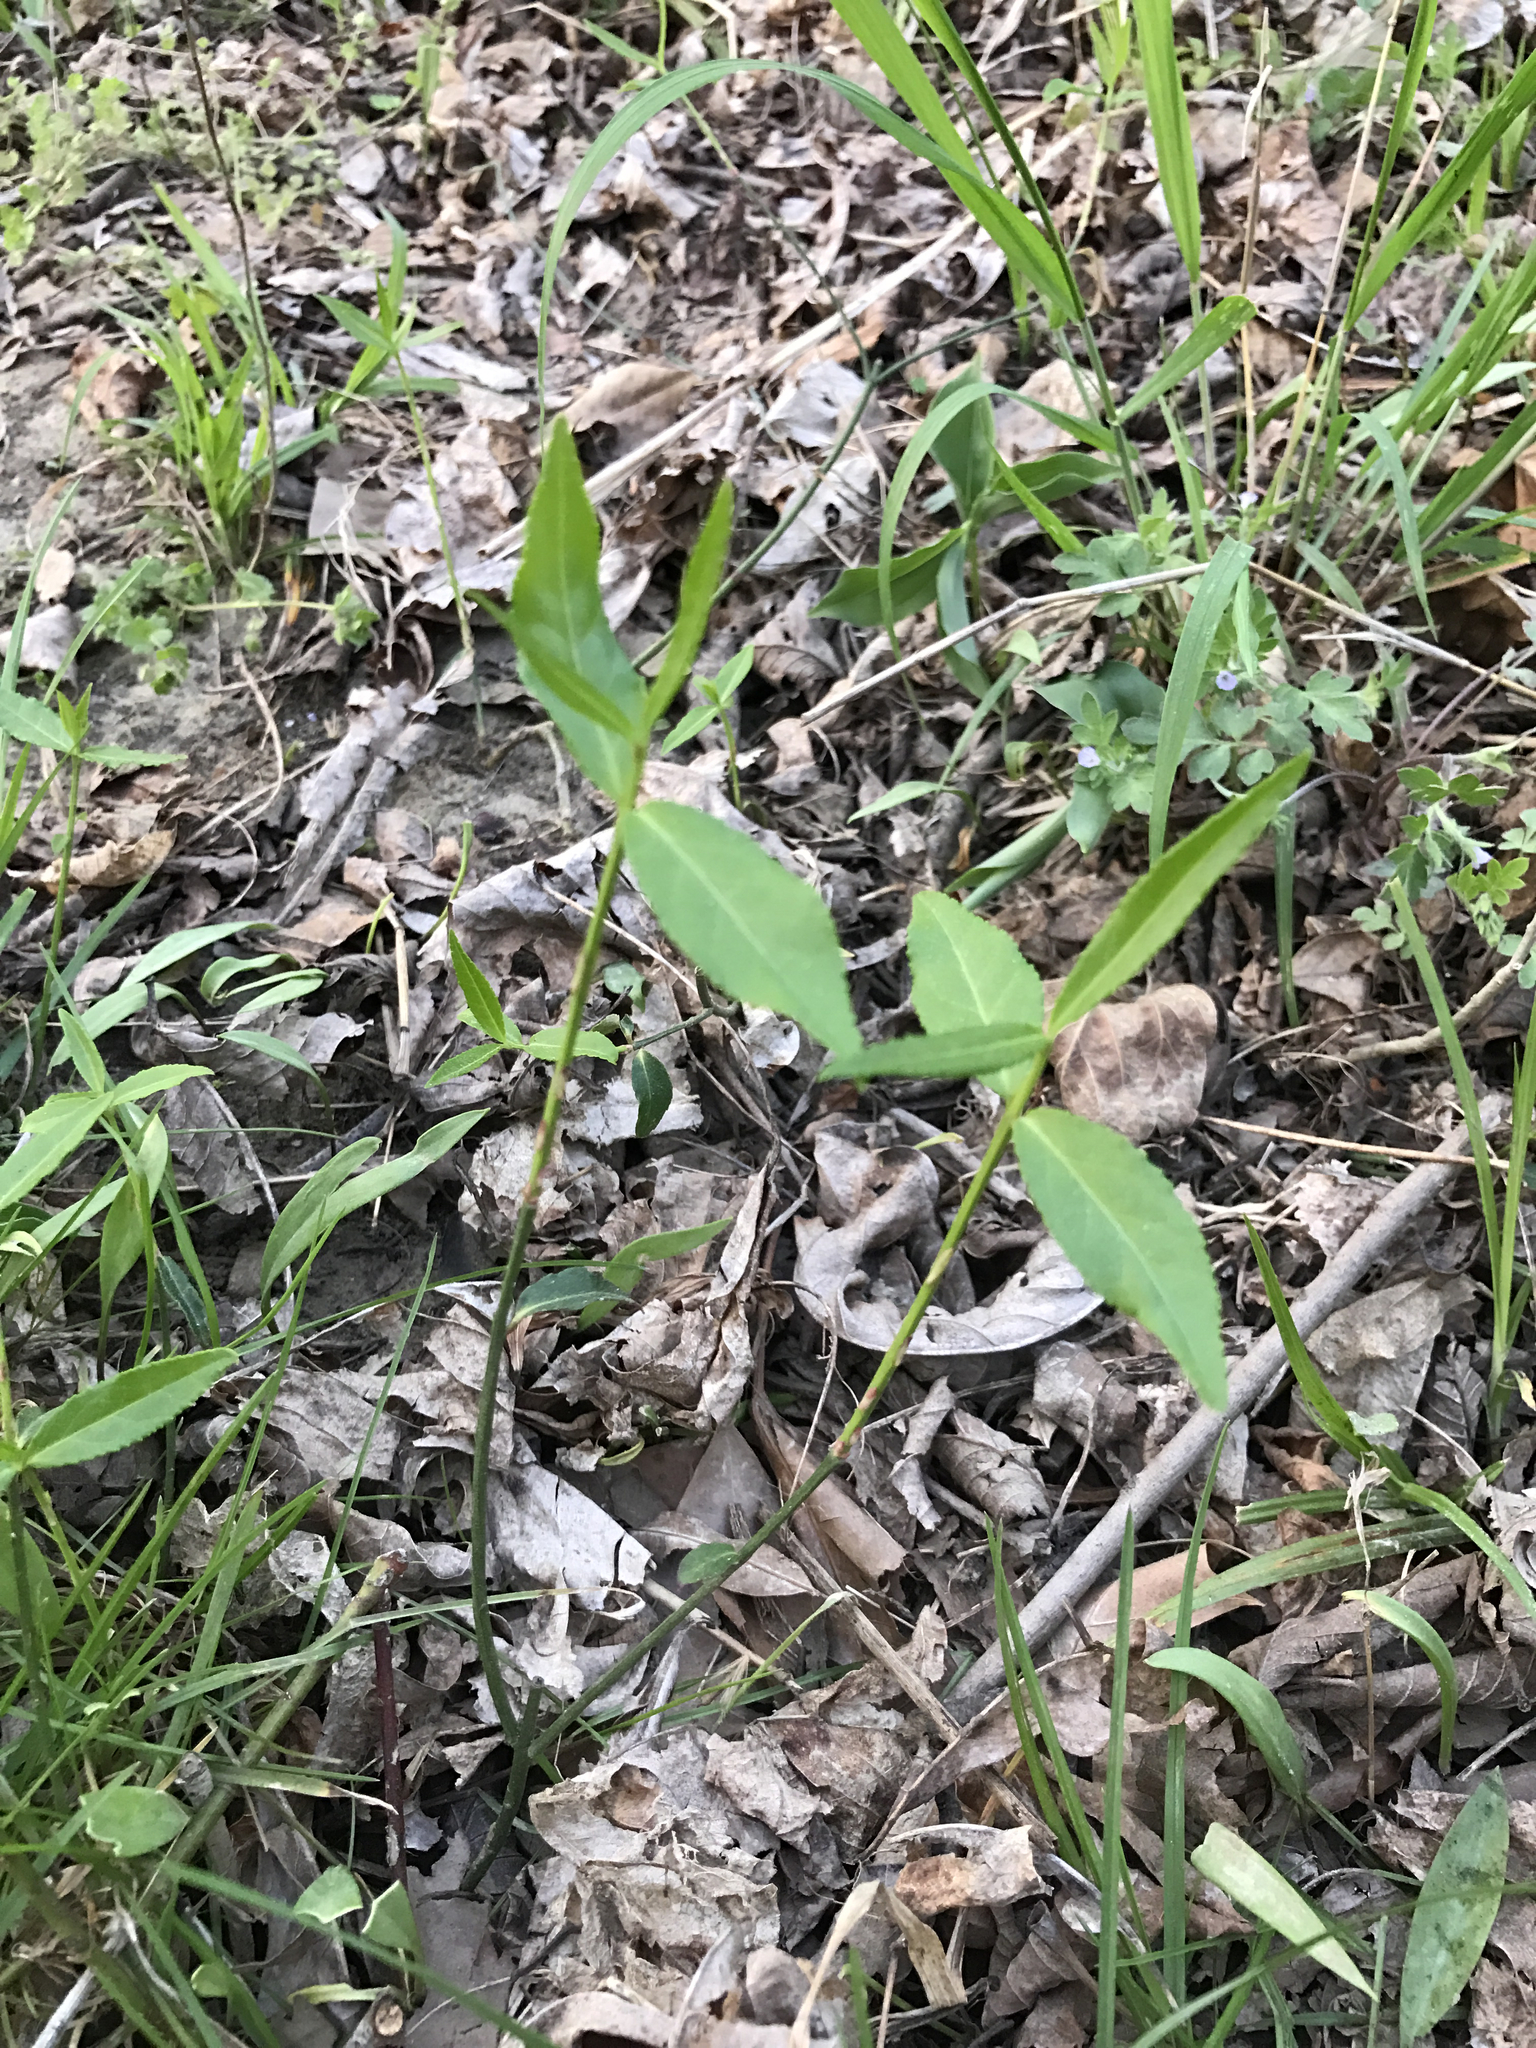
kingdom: Plantae
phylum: Tracheophyta
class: Magnoliopsida
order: Celastrales
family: Celastraceae
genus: Euonymus
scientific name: Euonymus americanus
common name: Bursting-heart
